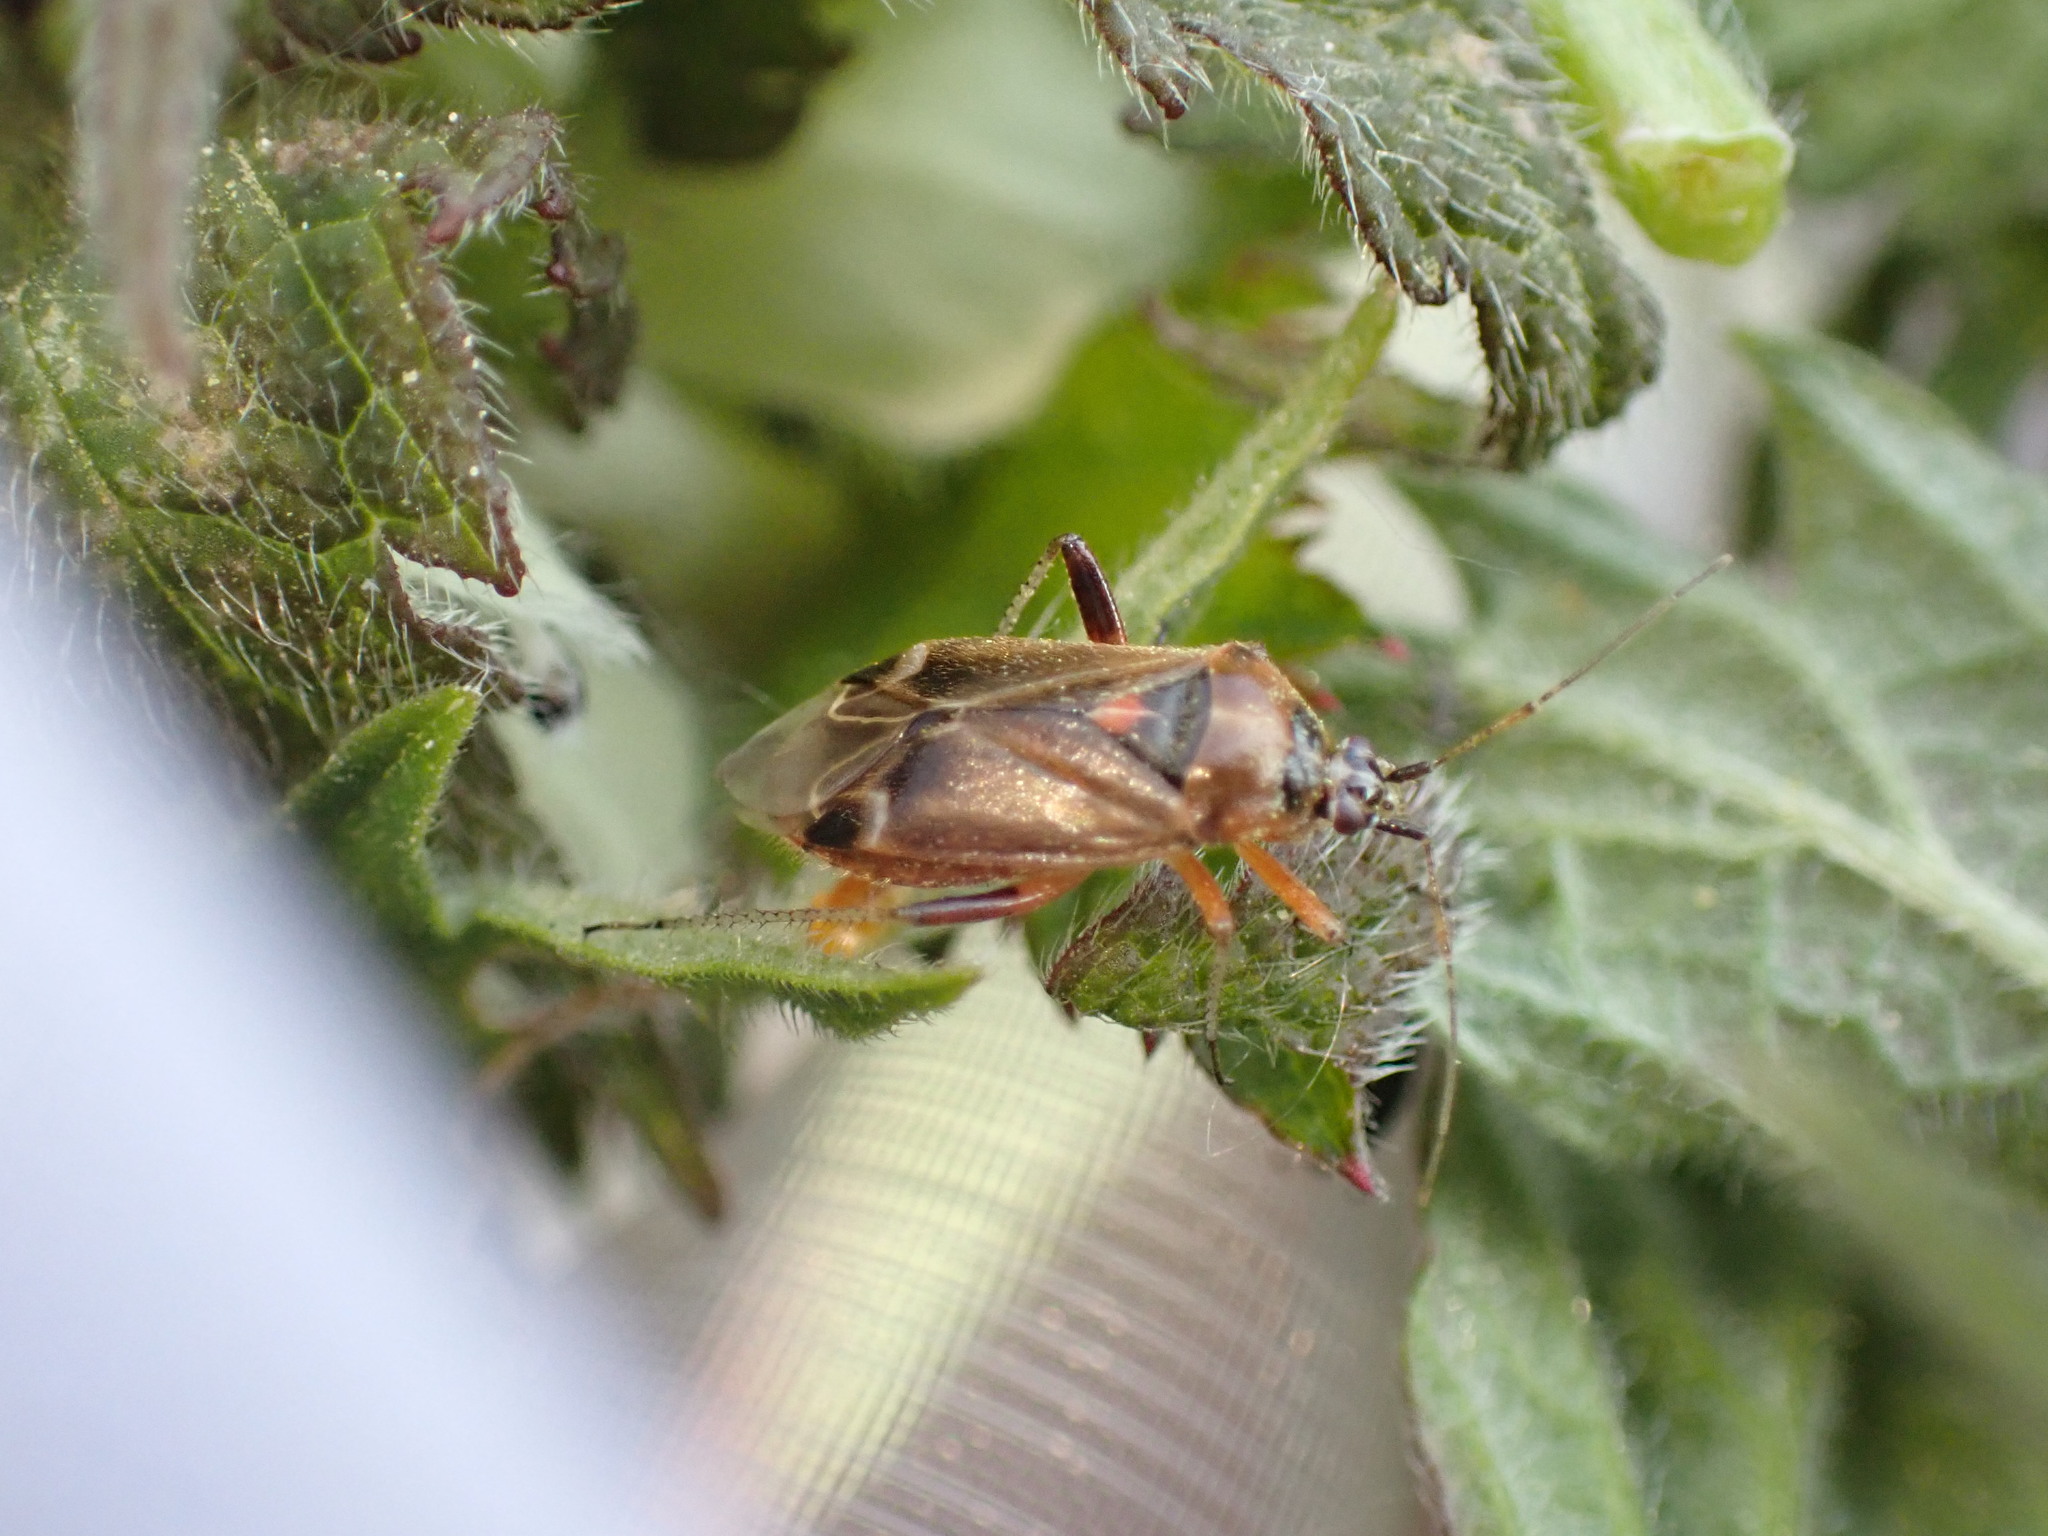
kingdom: Animalia
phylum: Arthropoda
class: Insecta
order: Hemiptera
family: Miridae
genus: Harpocera
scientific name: Harpocera thoracica
